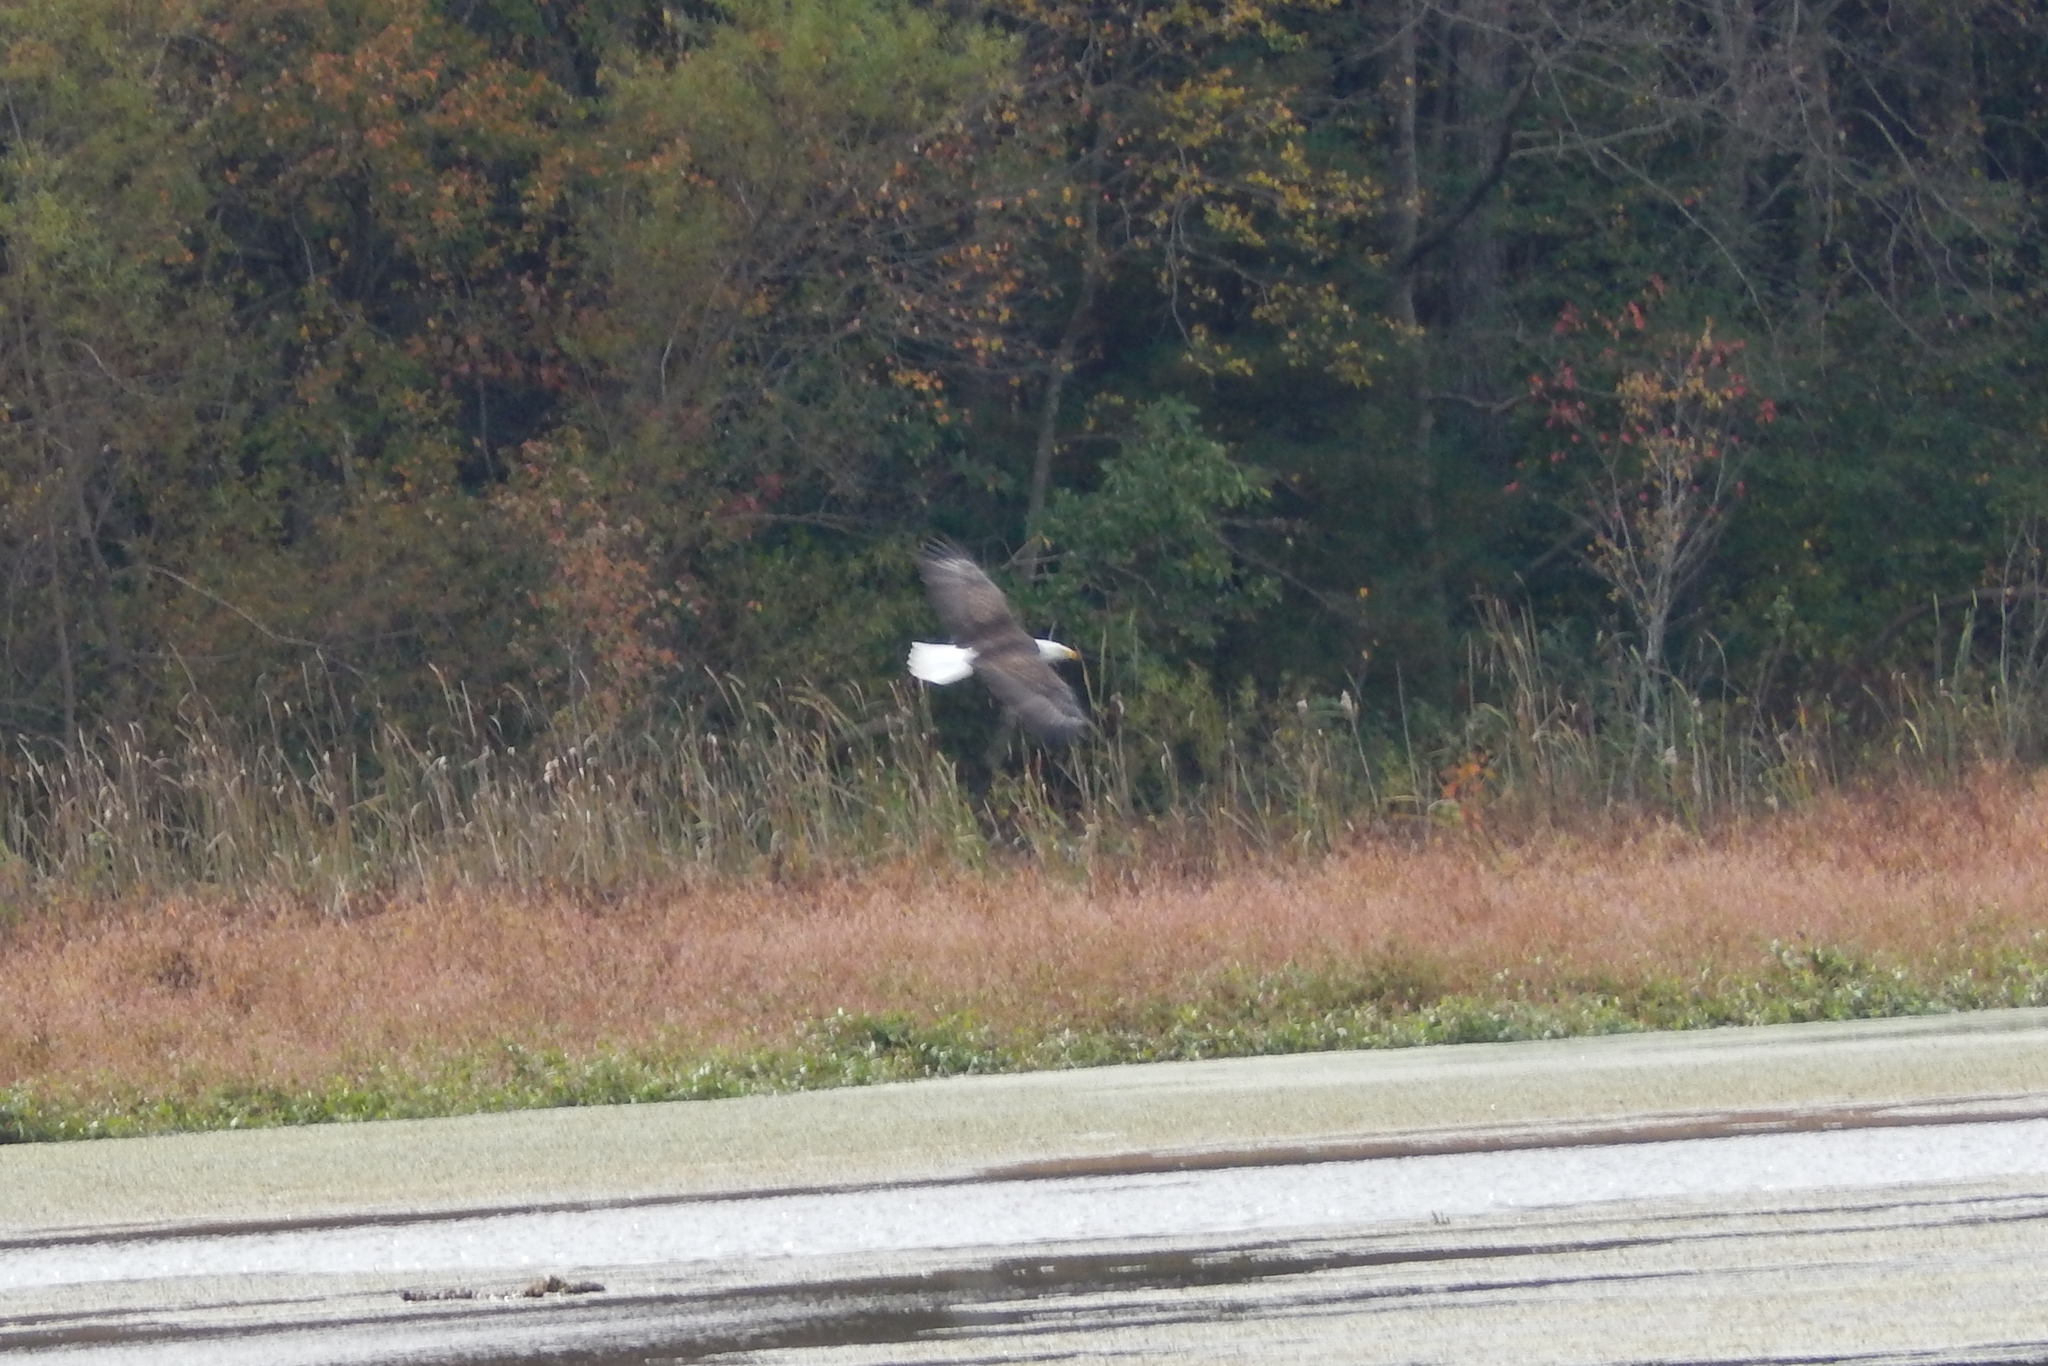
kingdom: Animalia
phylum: Chordata
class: Aves
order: Accipitriformes
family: Accipitridae
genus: Haliaeetus
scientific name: Haliaeetus leucocephalus
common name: Bald eagle
